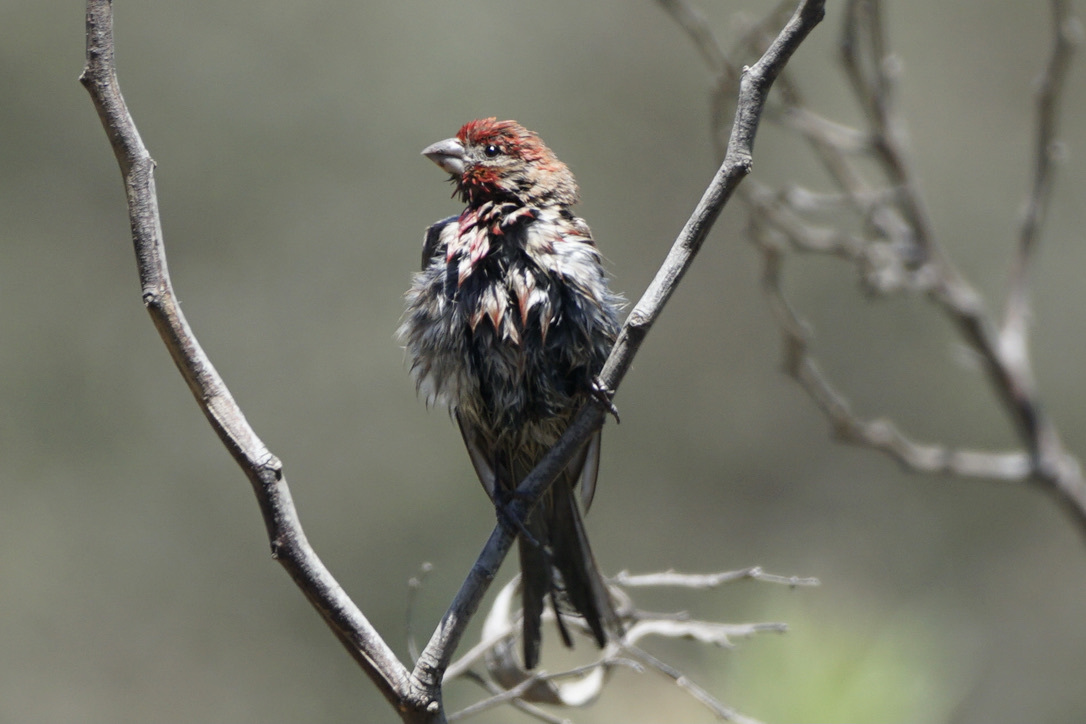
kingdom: Animalia
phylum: Chordata
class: Aves
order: Passeriformes
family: Fringillidae
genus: Haemorhous
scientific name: Haemorhous mexicanus
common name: House finch
